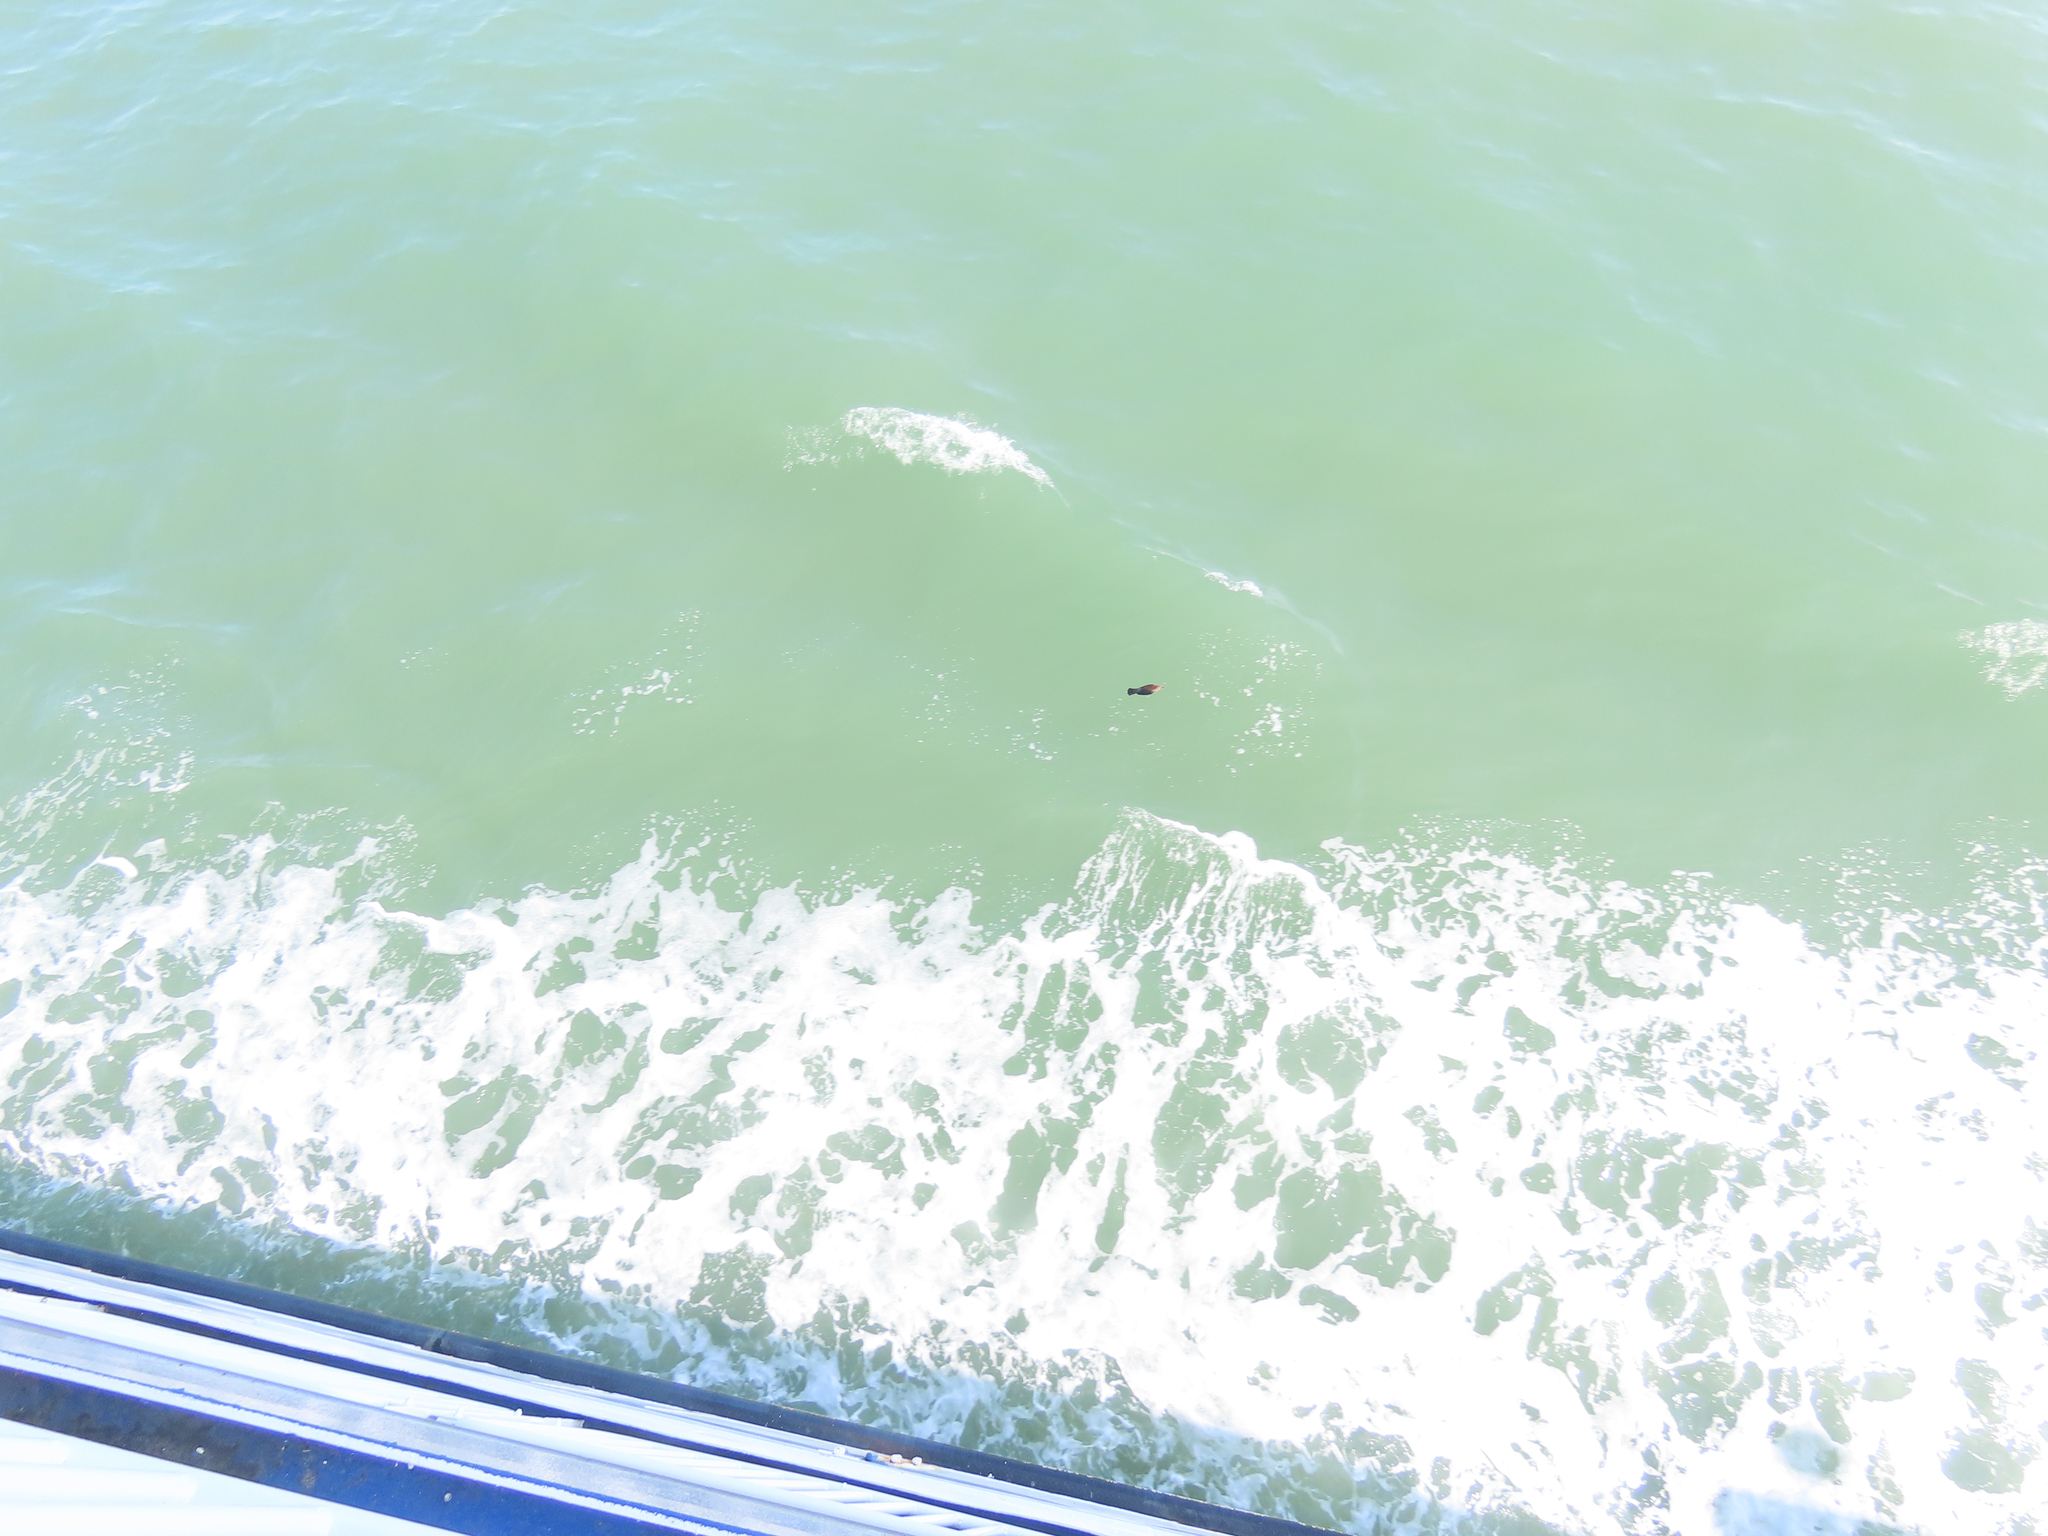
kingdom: Animalia
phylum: Chordata
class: Aves
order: Passeriformes
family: Icteridae
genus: Euphagus
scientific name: Euphagus carolinus
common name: Rusty blackbird
